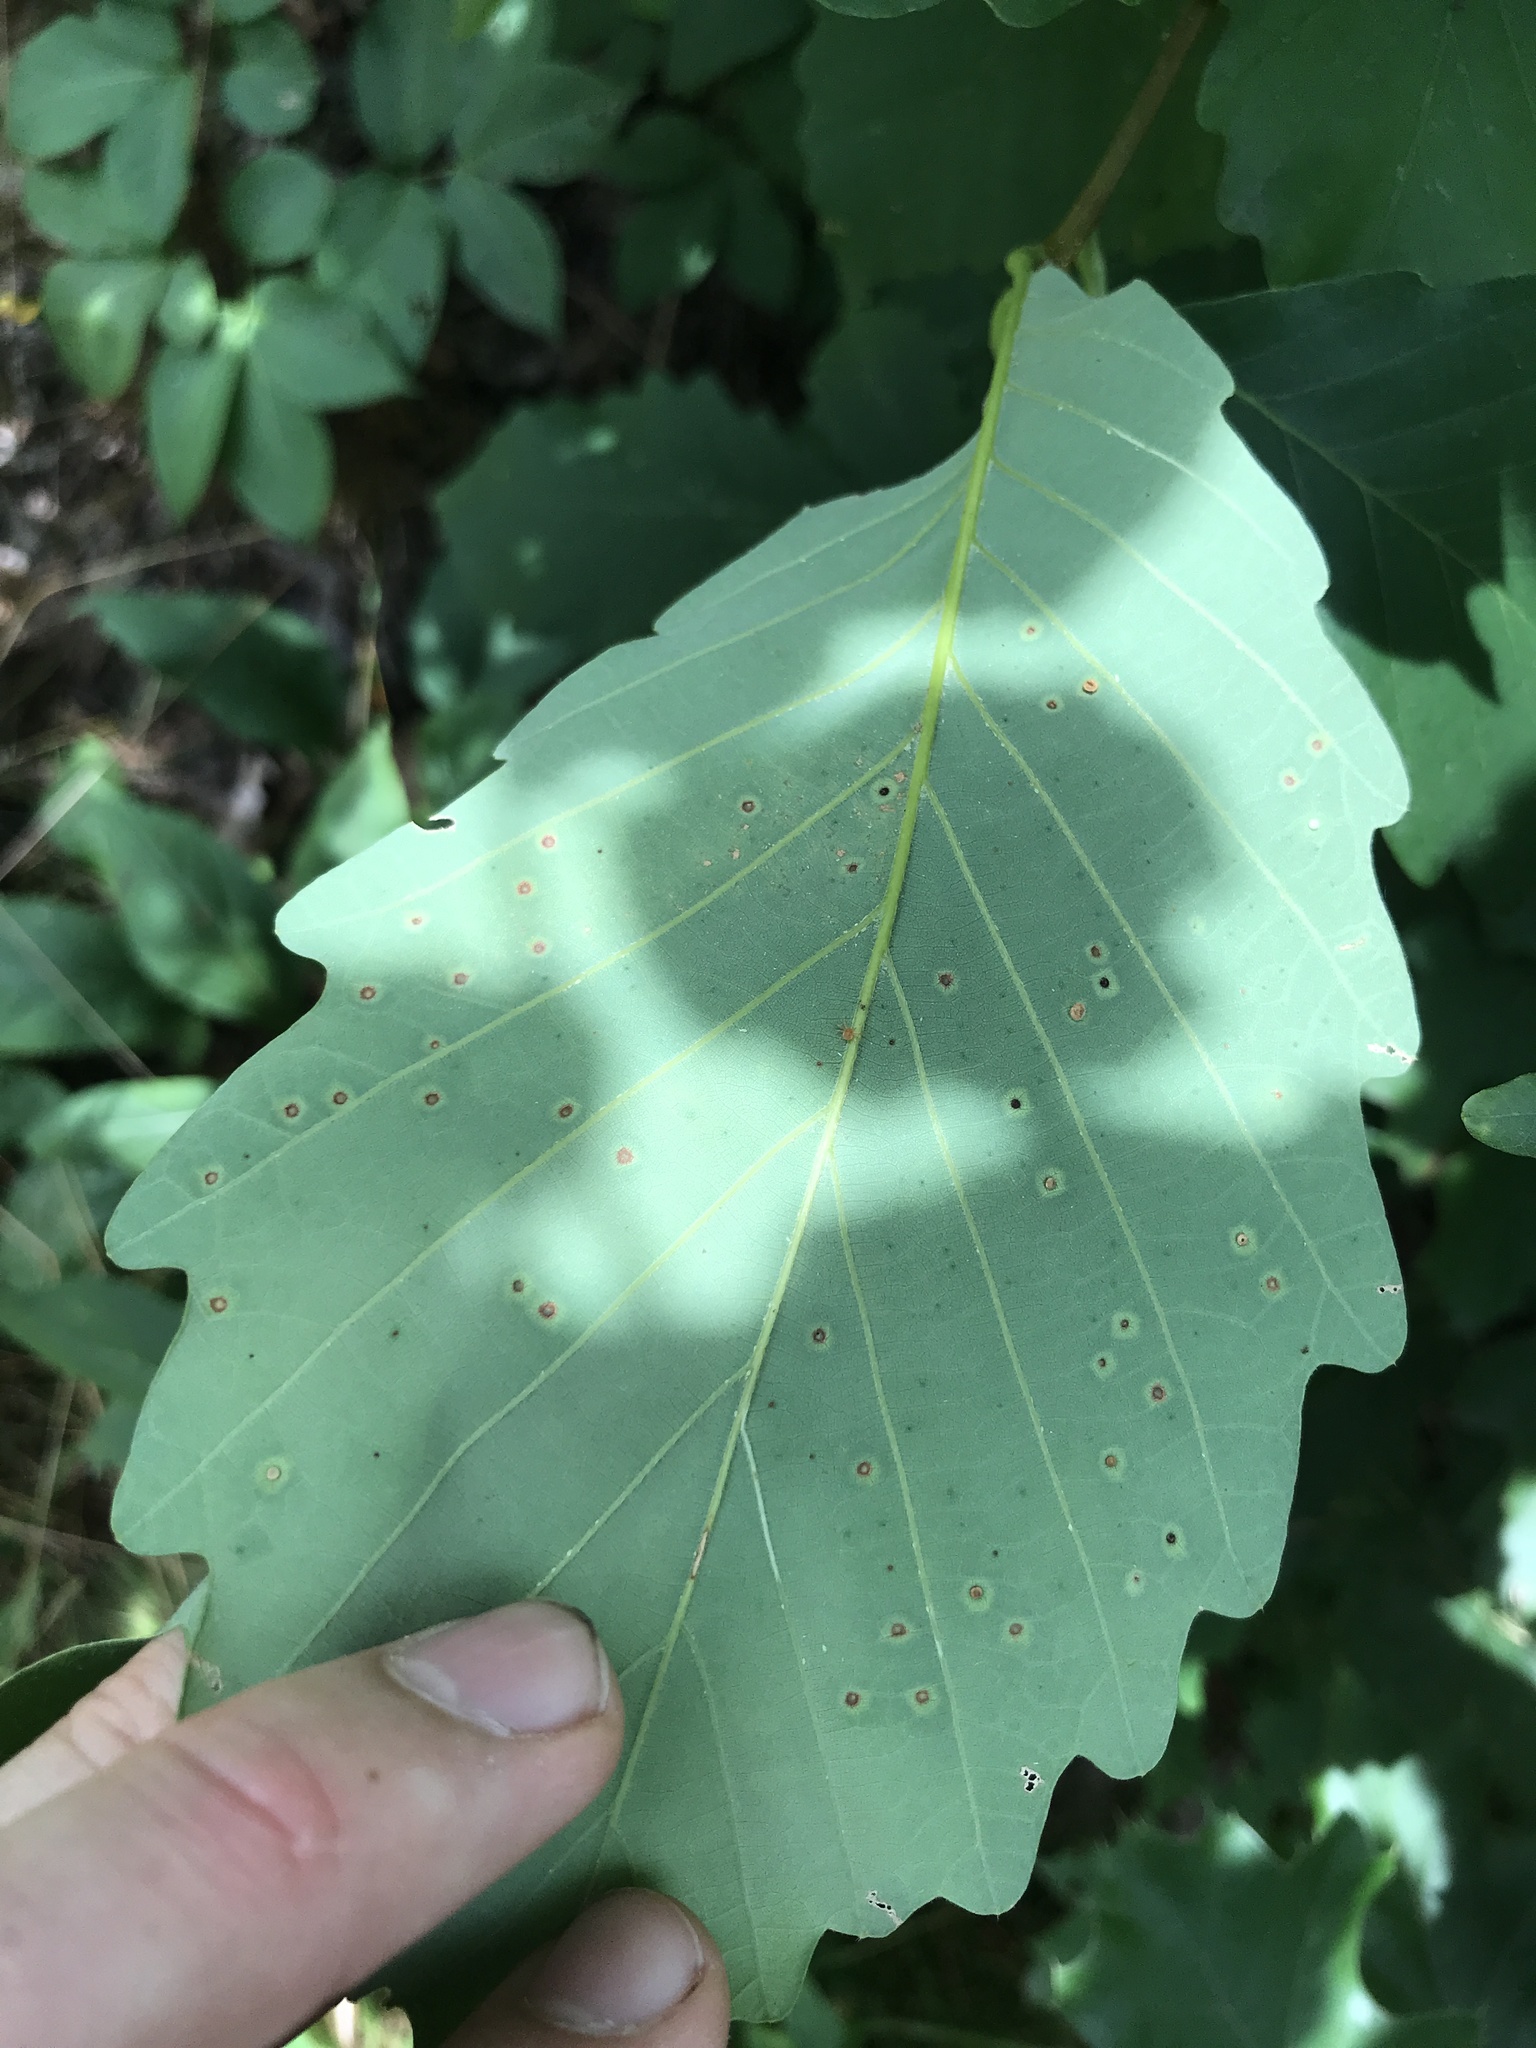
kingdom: Animalia
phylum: Arthropoda
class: Insecta
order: Hymenoptera
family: Cynipidae
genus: Neuroterus
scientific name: Neuroterus
